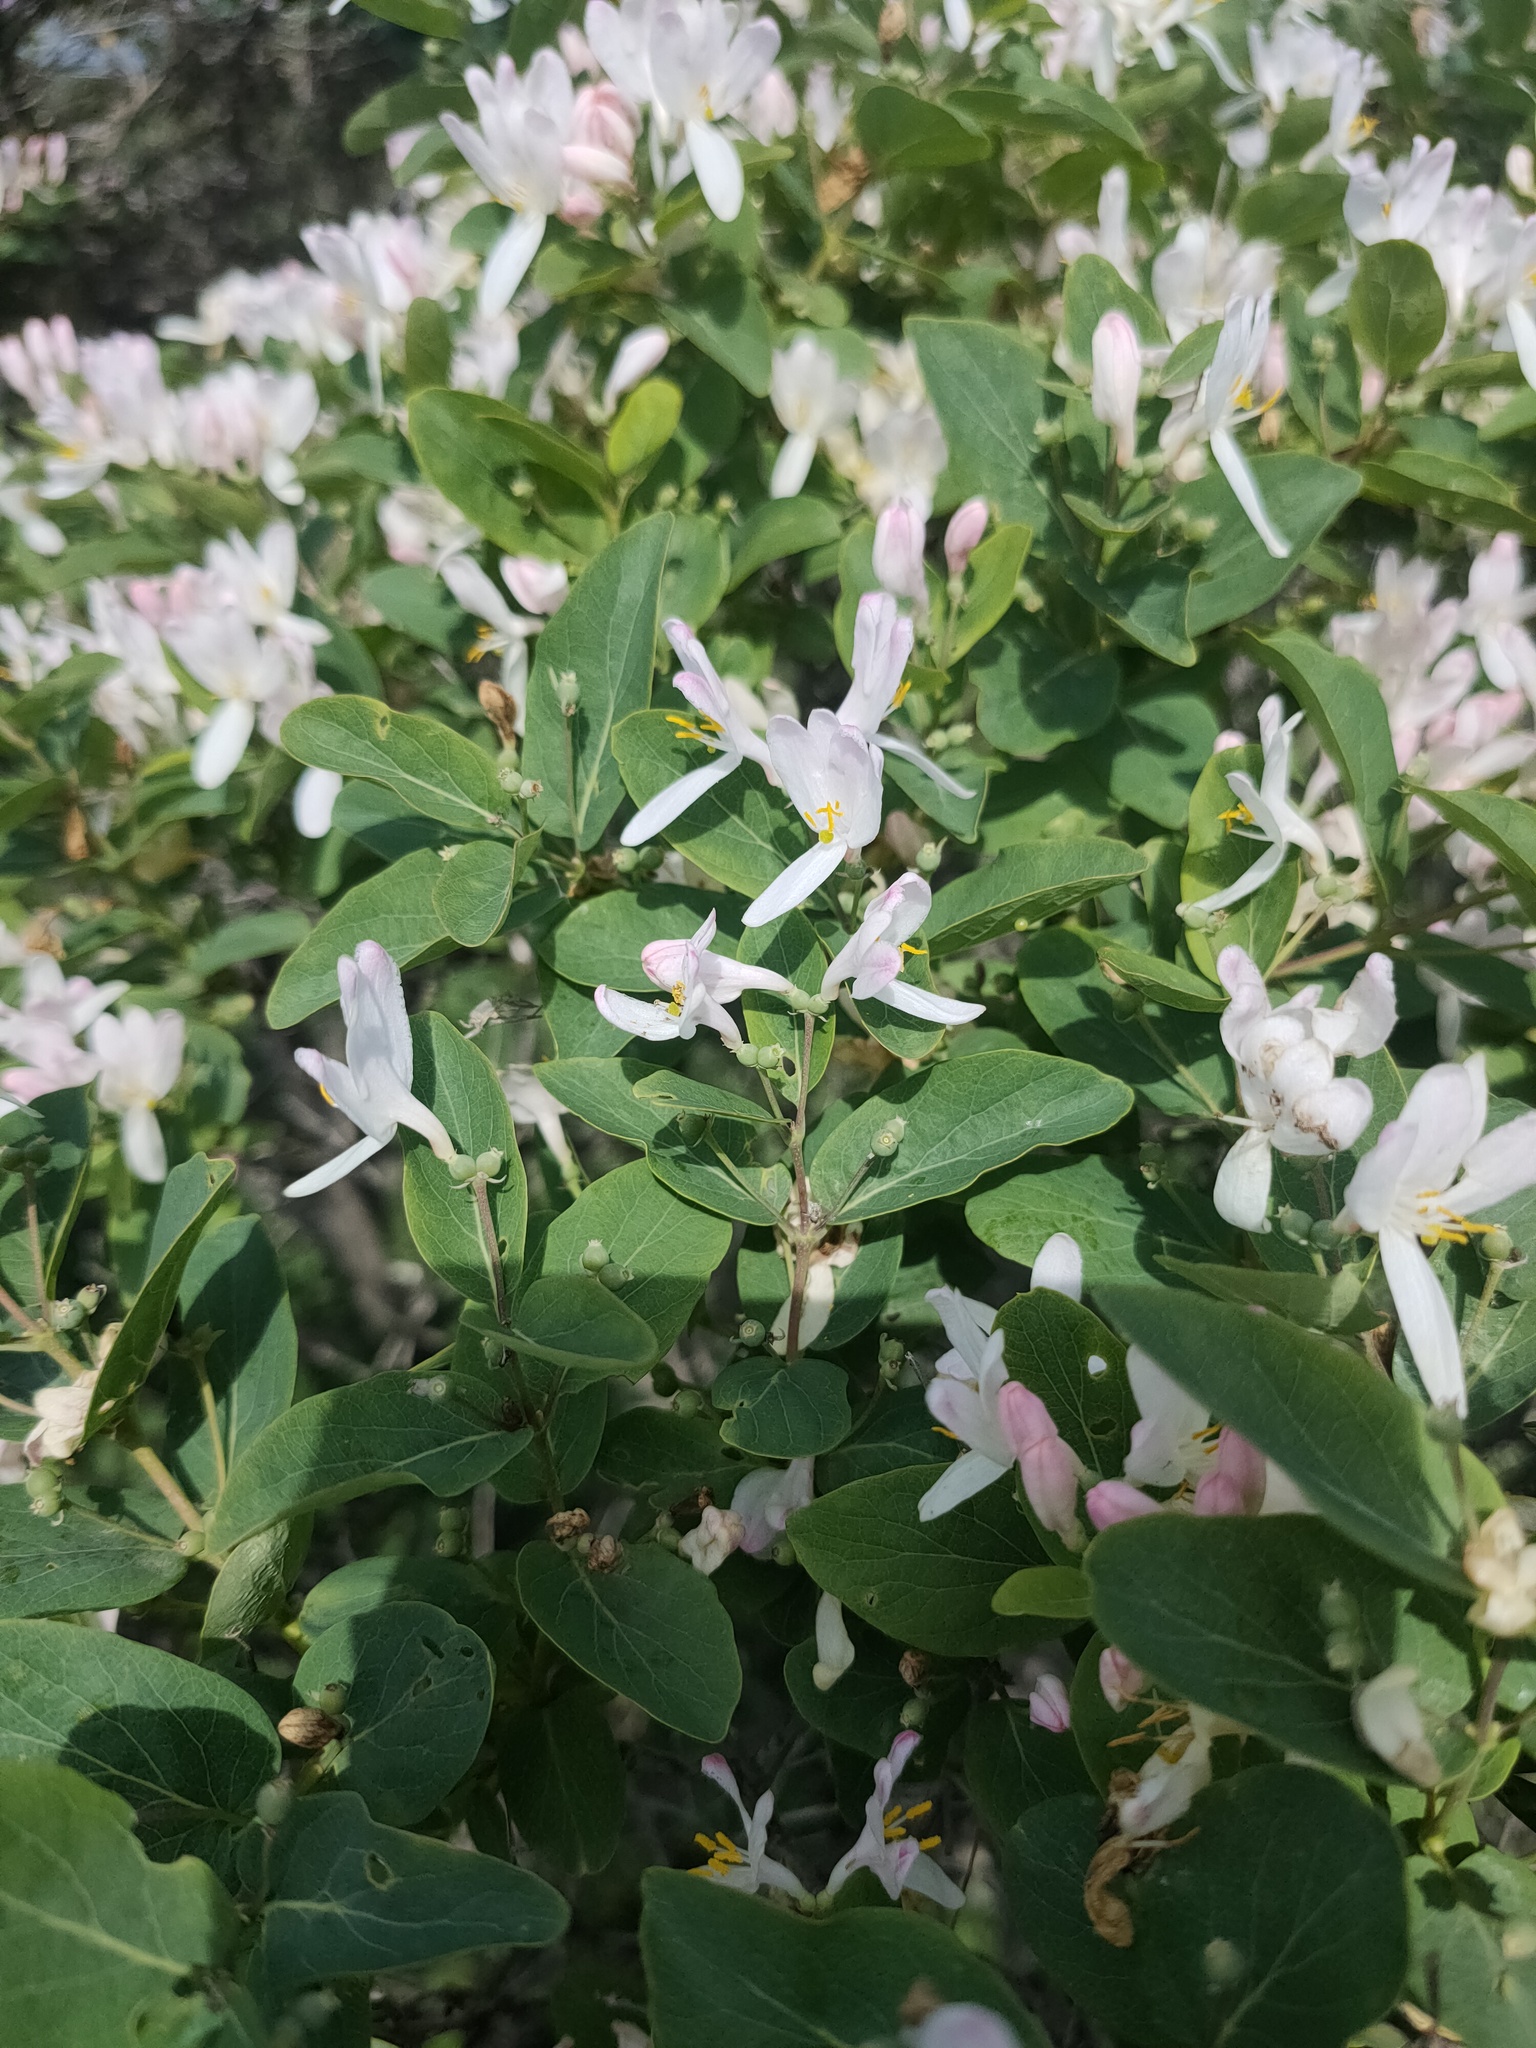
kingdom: Plantae
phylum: Tracheophyta
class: Magnoliopsida
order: Dipsacales
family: Caprifoliaceae
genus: Lonicera
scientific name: Lonicera tatarica
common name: Tatarian honeysuckle
